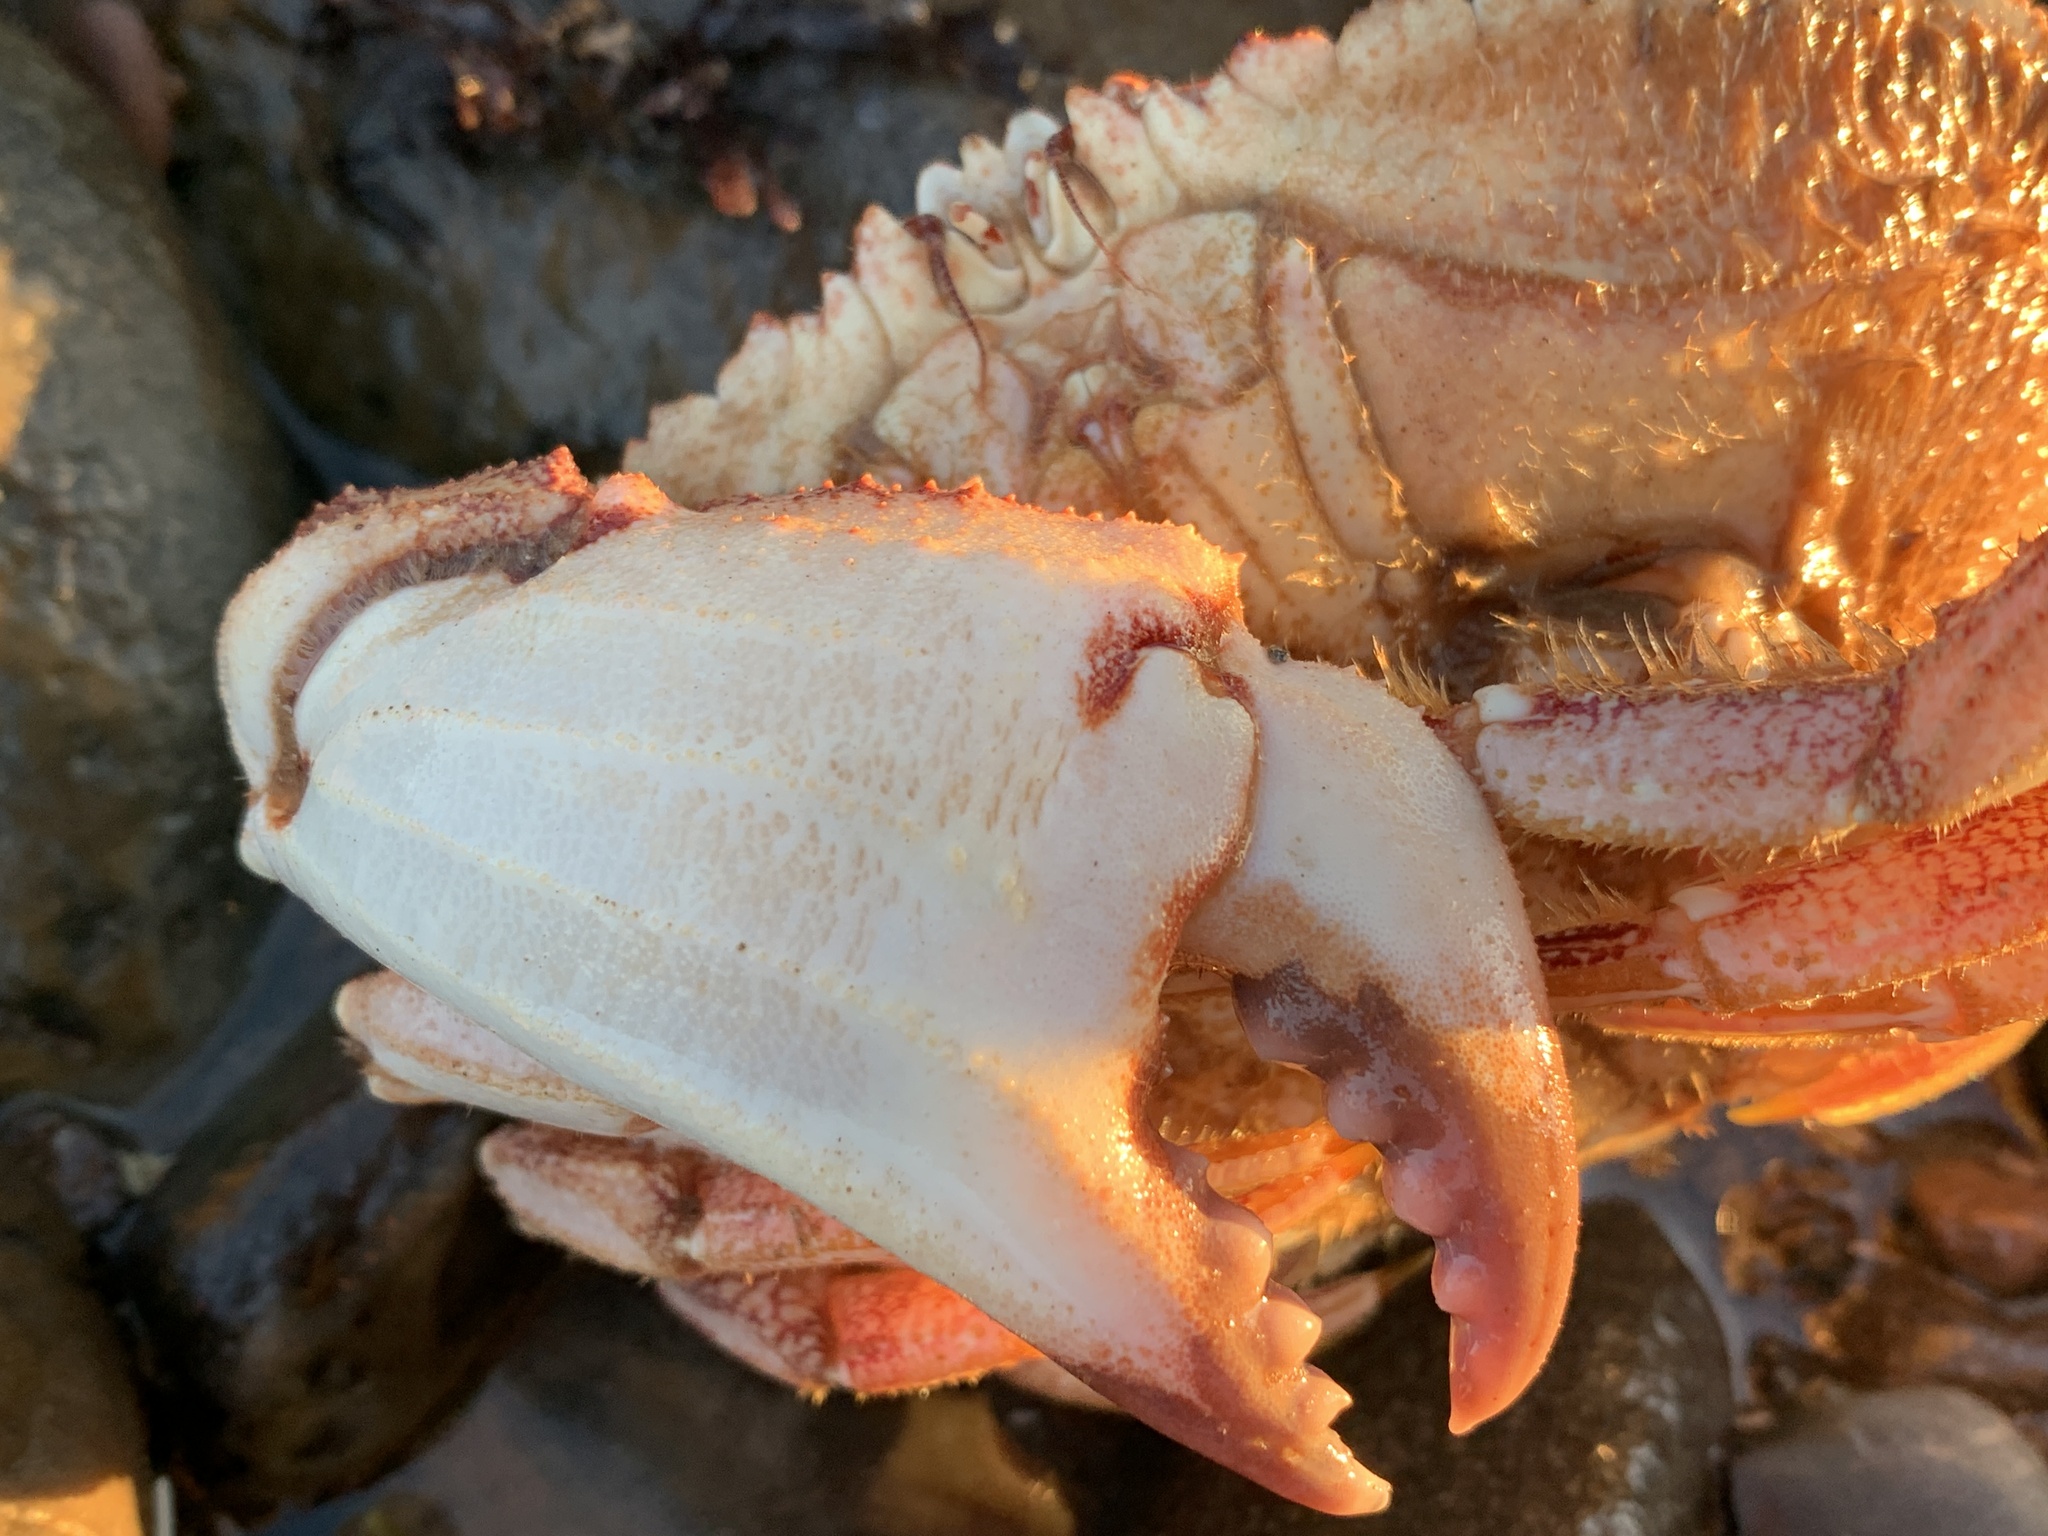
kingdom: Animalia
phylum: Arthropoda
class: Malacostraca
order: Decapoda
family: Cancridae
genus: Cancer
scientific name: Cancer borealis
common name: Jonah crab
